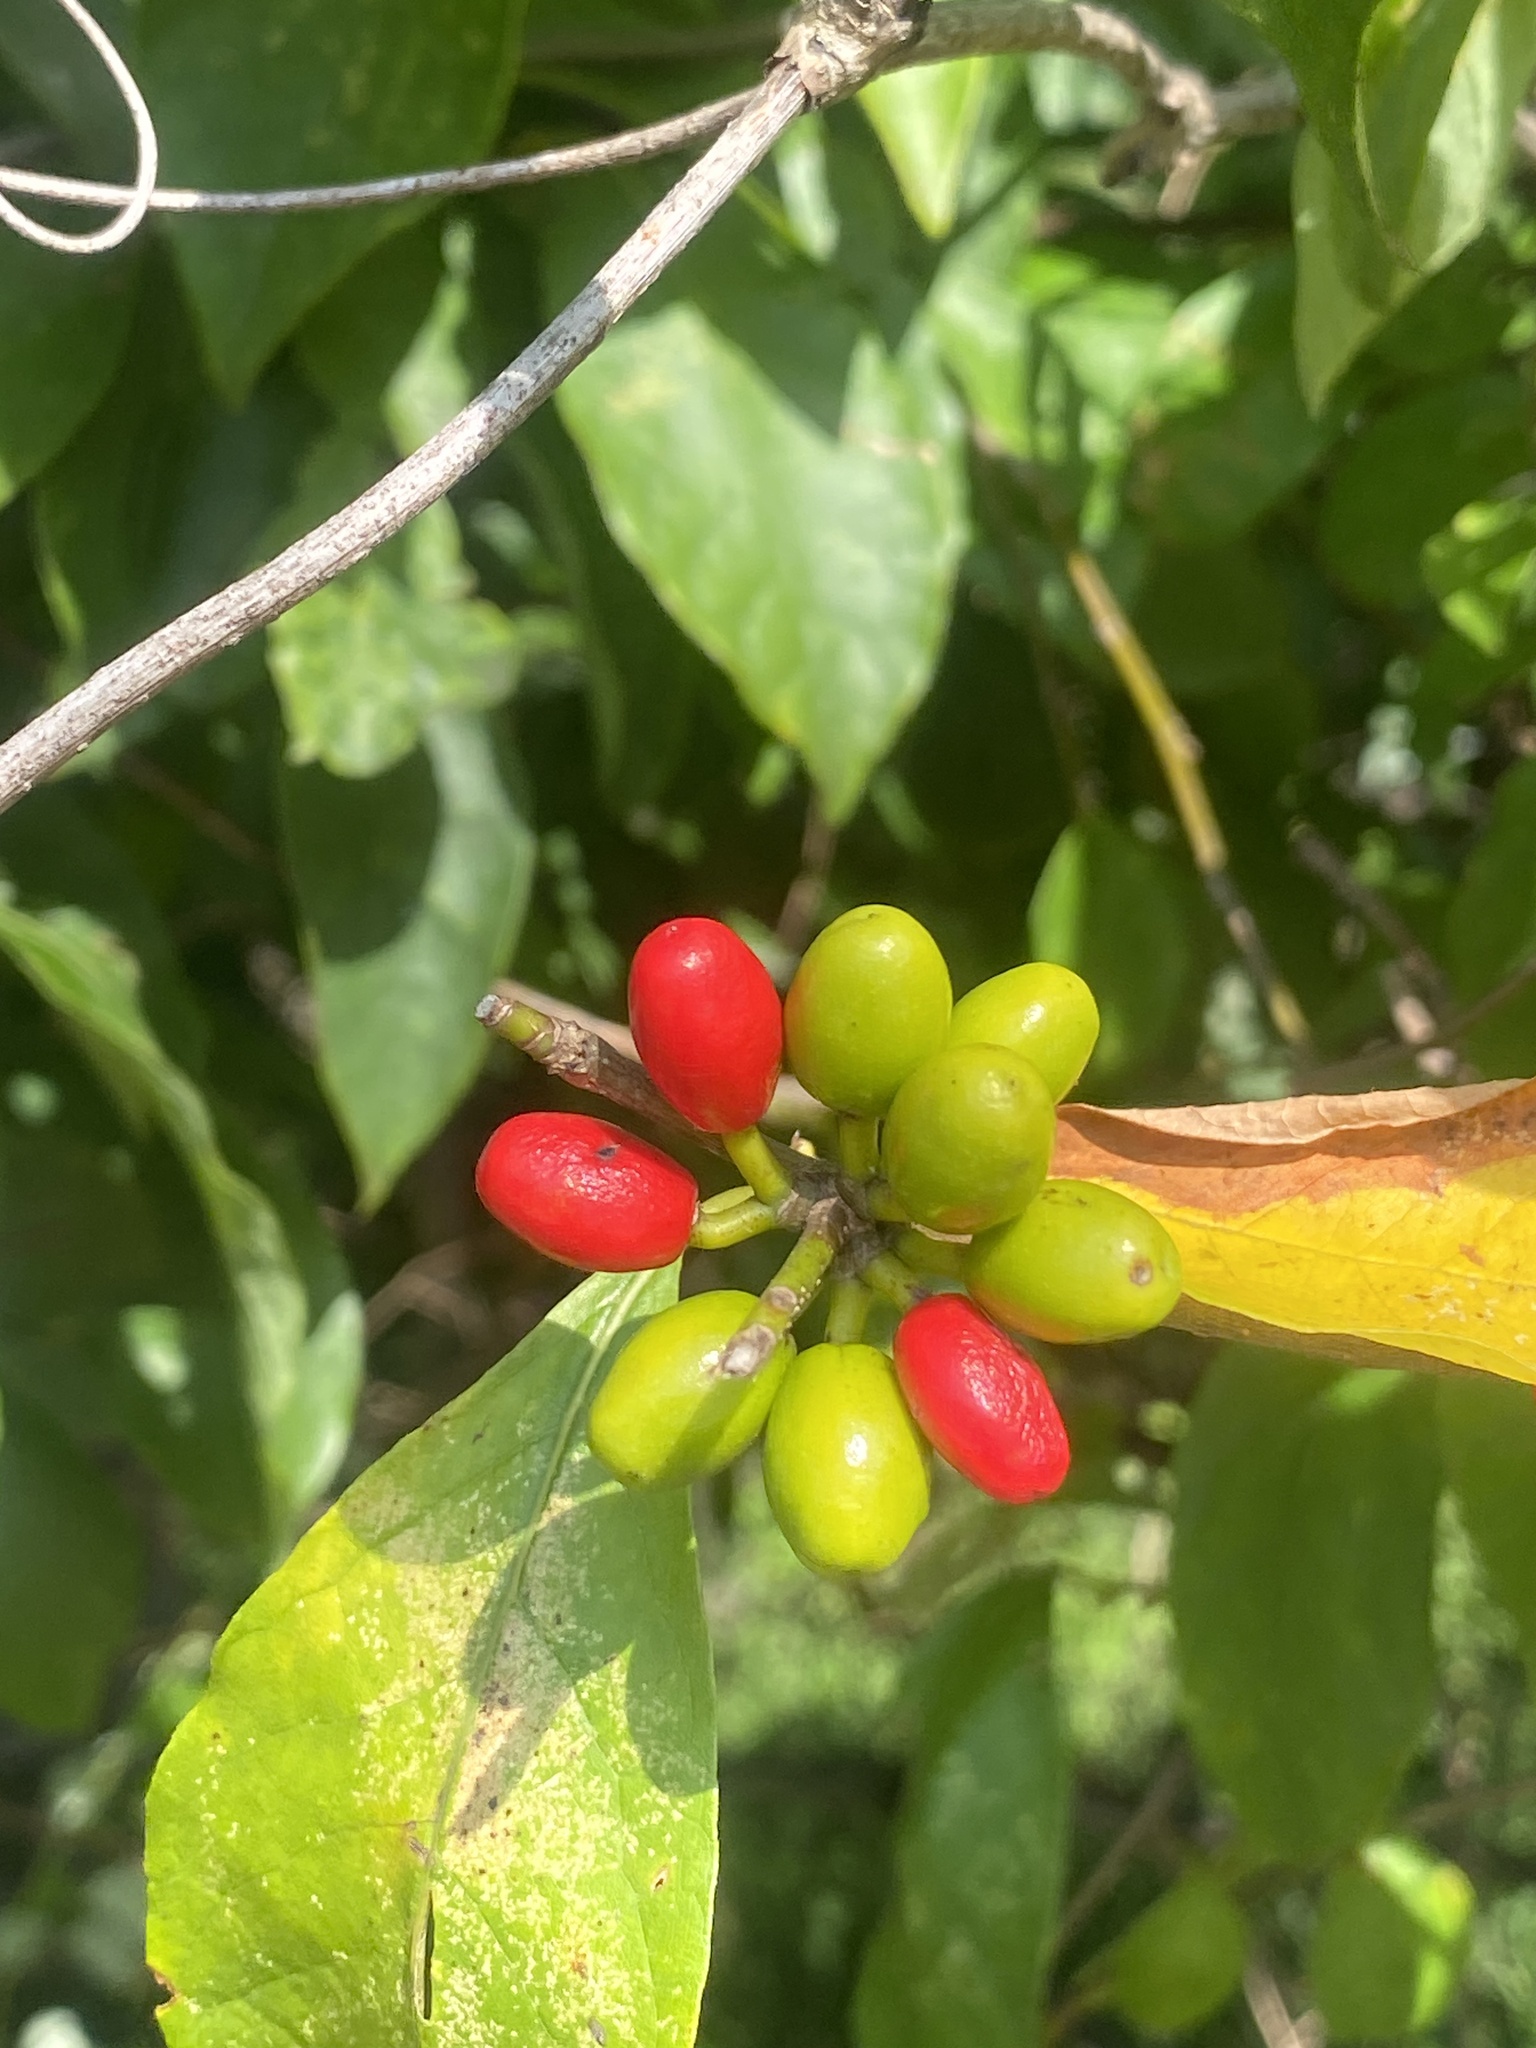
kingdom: Plantae
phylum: Tracheophyta
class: Magnoliopsida
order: Laurales
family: Lauraceae
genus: Lindera
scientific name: Lindera benzoin
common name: Spicebush
